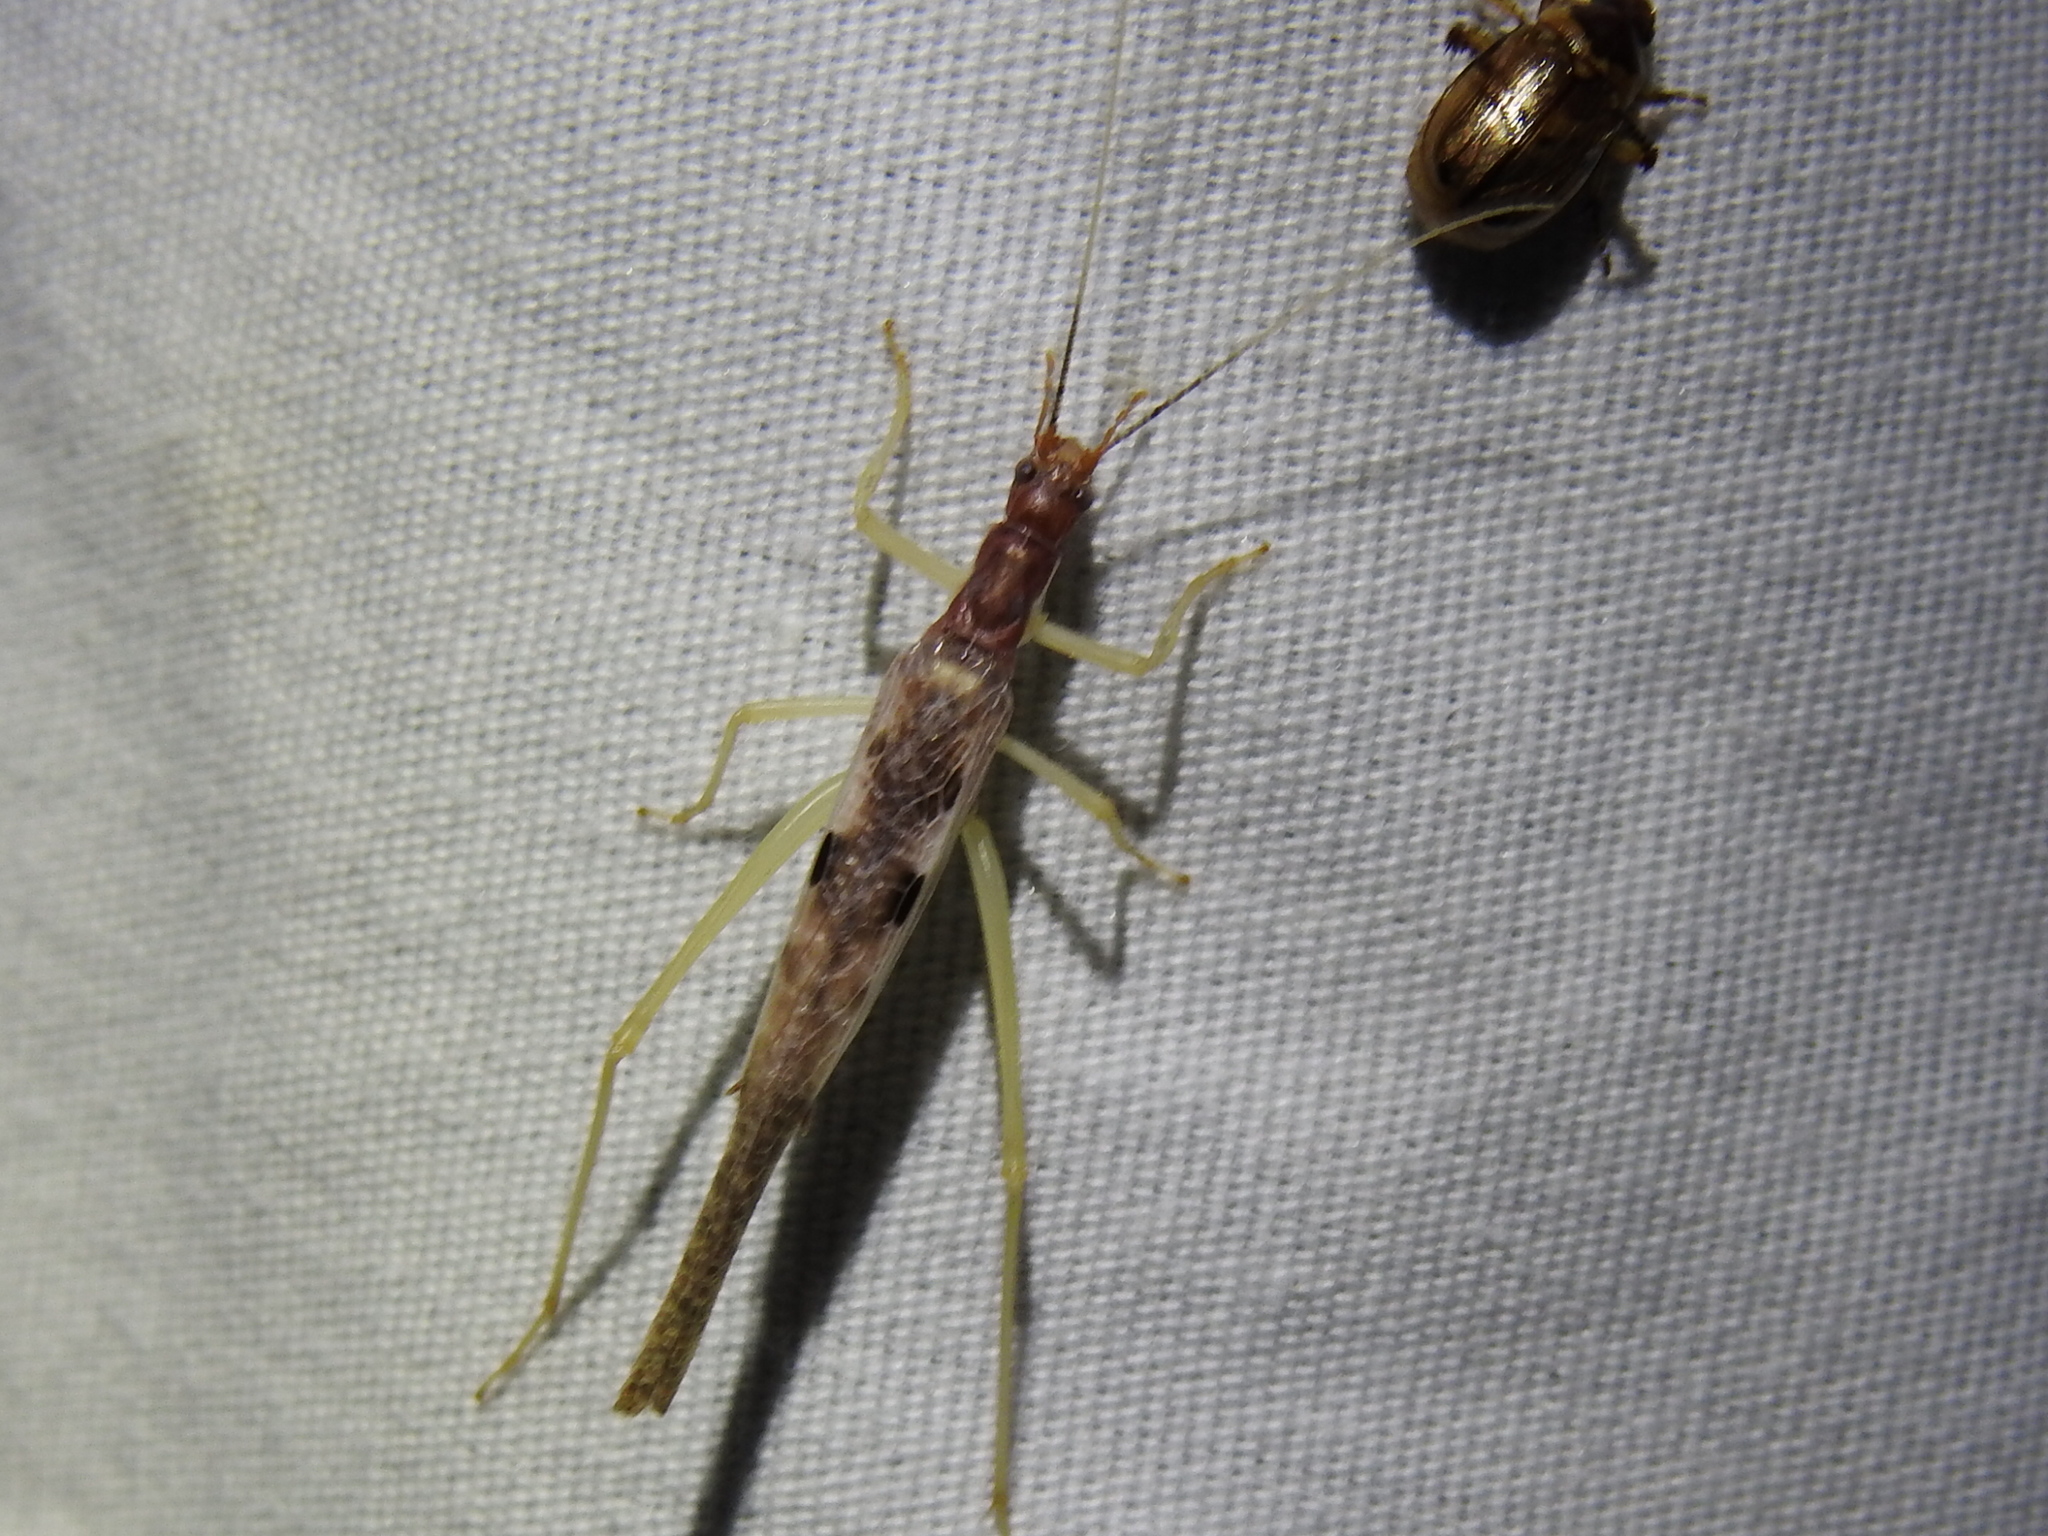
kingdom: Animalia
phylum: Arthropoda
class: Insecta
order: Orthoptera
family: Gryllidae
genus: Neoxabea
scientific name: Neoxabea bipunctata
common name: Two-spotted tree cricket
